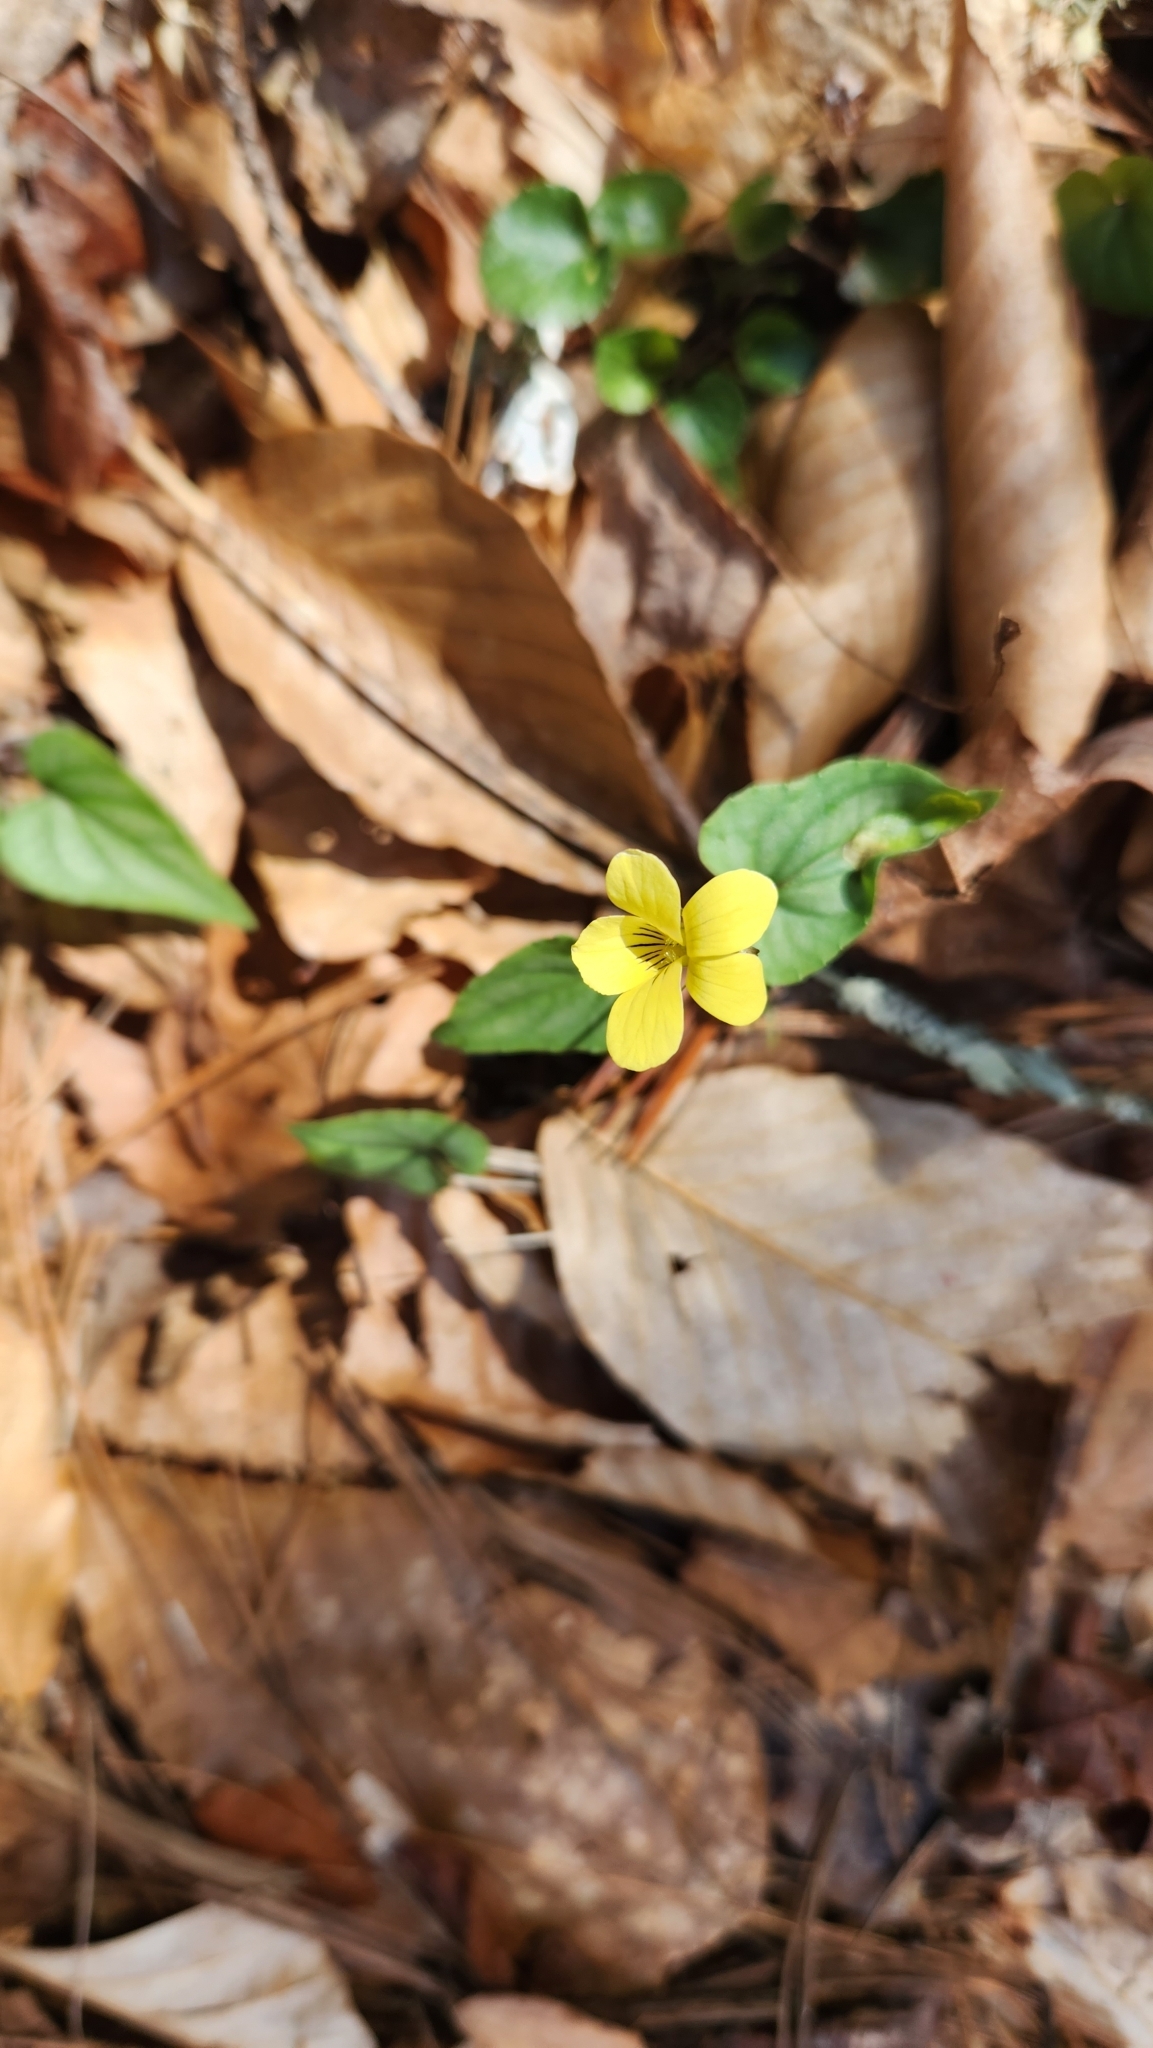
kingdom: Plantae
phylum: Tracheophyta
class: Magnoliopsida
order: Malpighiales
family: Violaceae
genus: Viola
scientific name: Viola hastata
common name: Spear-leaf violet
